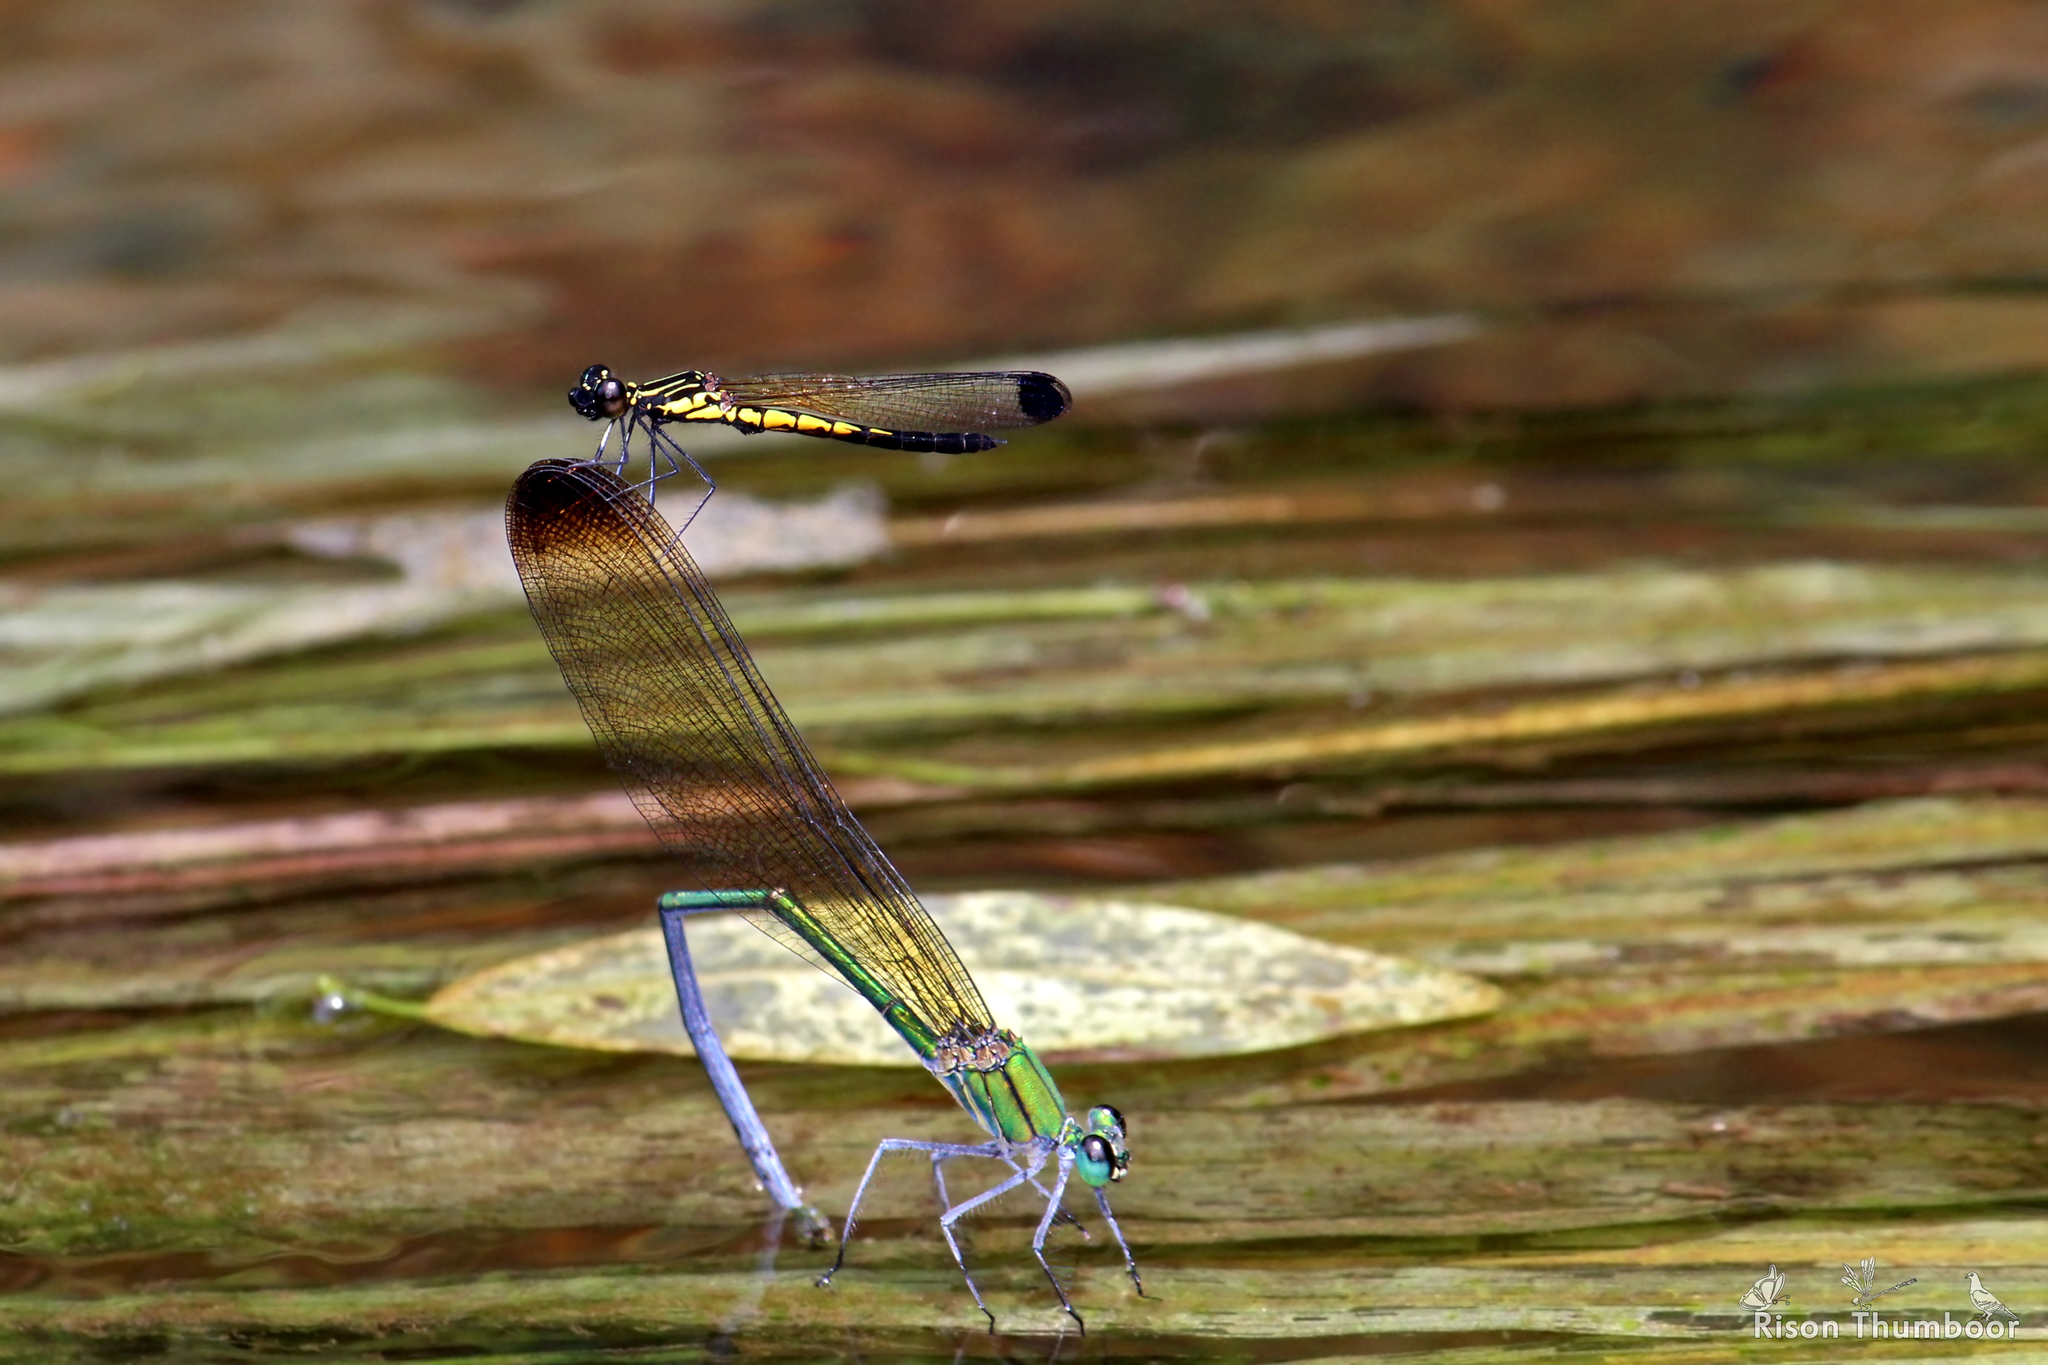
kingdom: Animalia
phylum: Arthropoda
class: Insecta
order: Odonata
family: Calopterygidae
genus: Vestalis
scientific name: Vestalis apicalis
